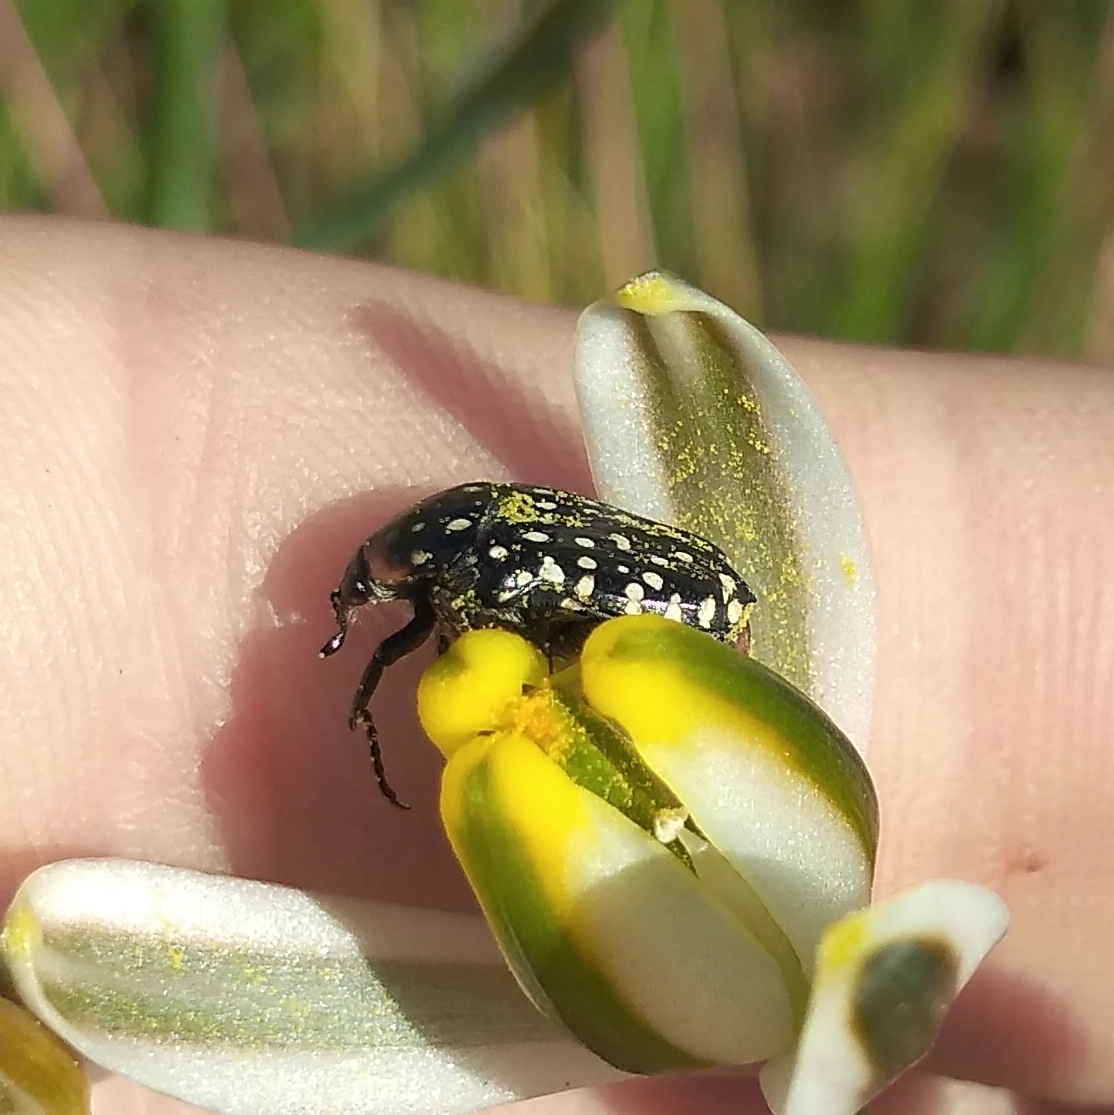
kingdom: Animalia
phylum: Arthropoda
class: Insecta
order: Coleoptera
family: Scarabaeidae
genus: Oxythyrea
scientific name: Oxythyrea
